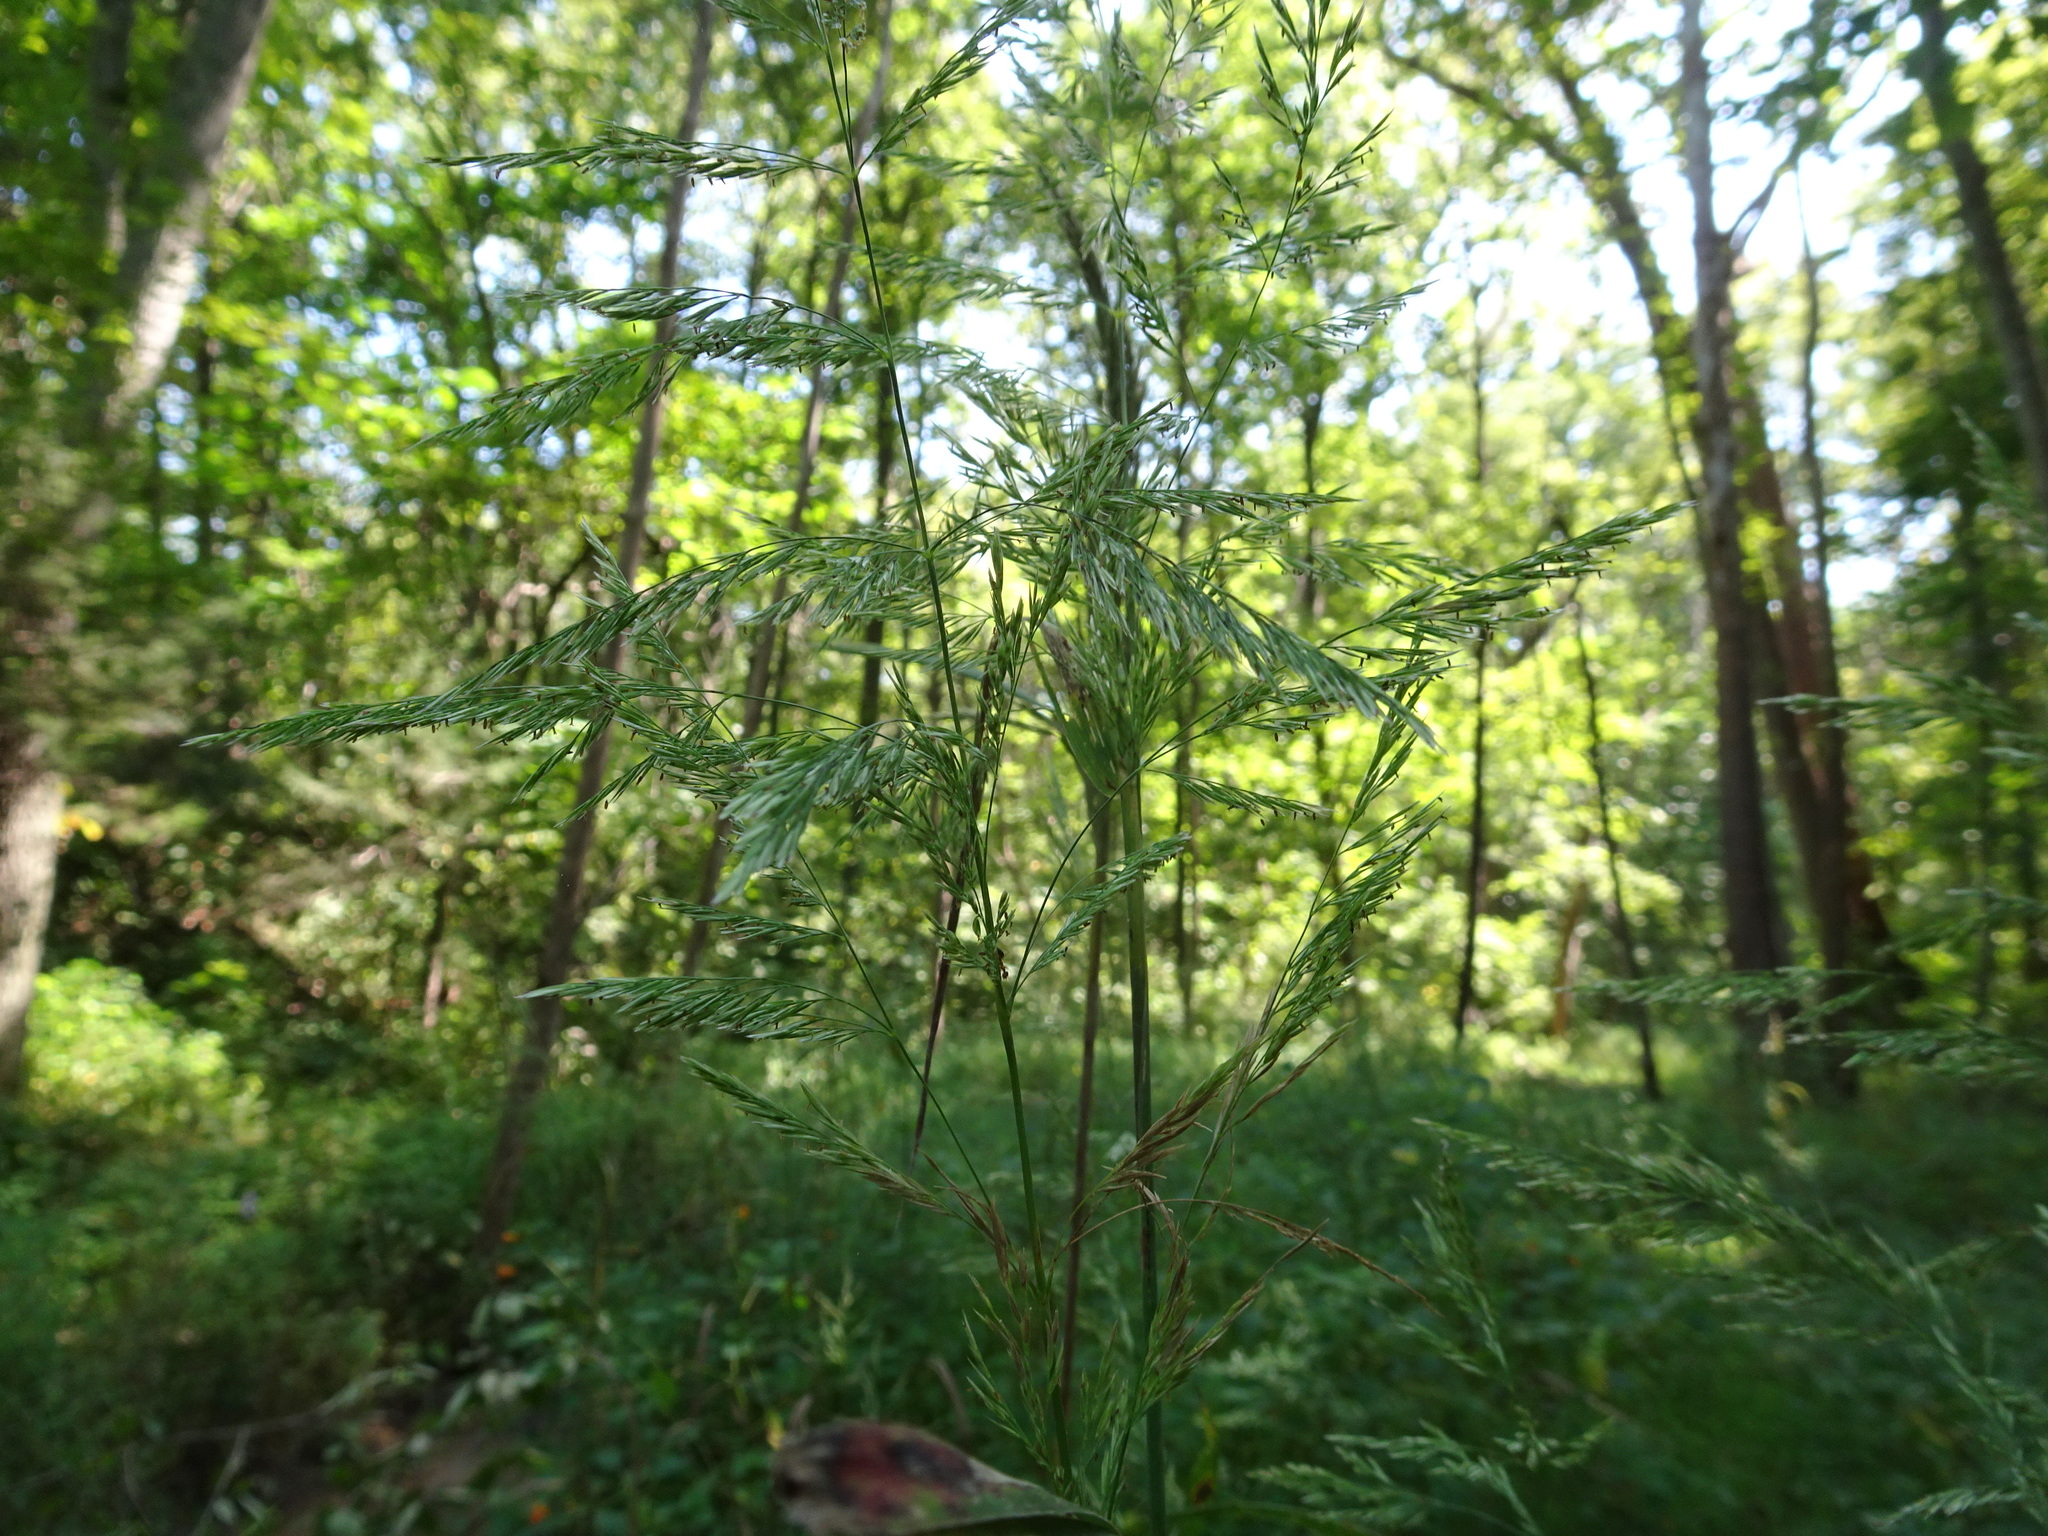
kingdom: Plantae
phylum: Tracheophyta
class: Liliopsida
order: Poales
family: Poaceae
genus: Cinna
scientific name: Cinna arundinacea
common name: Stout woodreed
